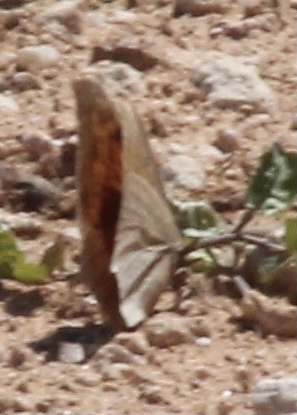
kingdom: Animalia
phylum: Arthropoda
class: Insecta
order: Lepidoptera
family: Nymphalidae
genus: Anaea
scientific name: Anaea andria
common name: Goatweed leafwing
